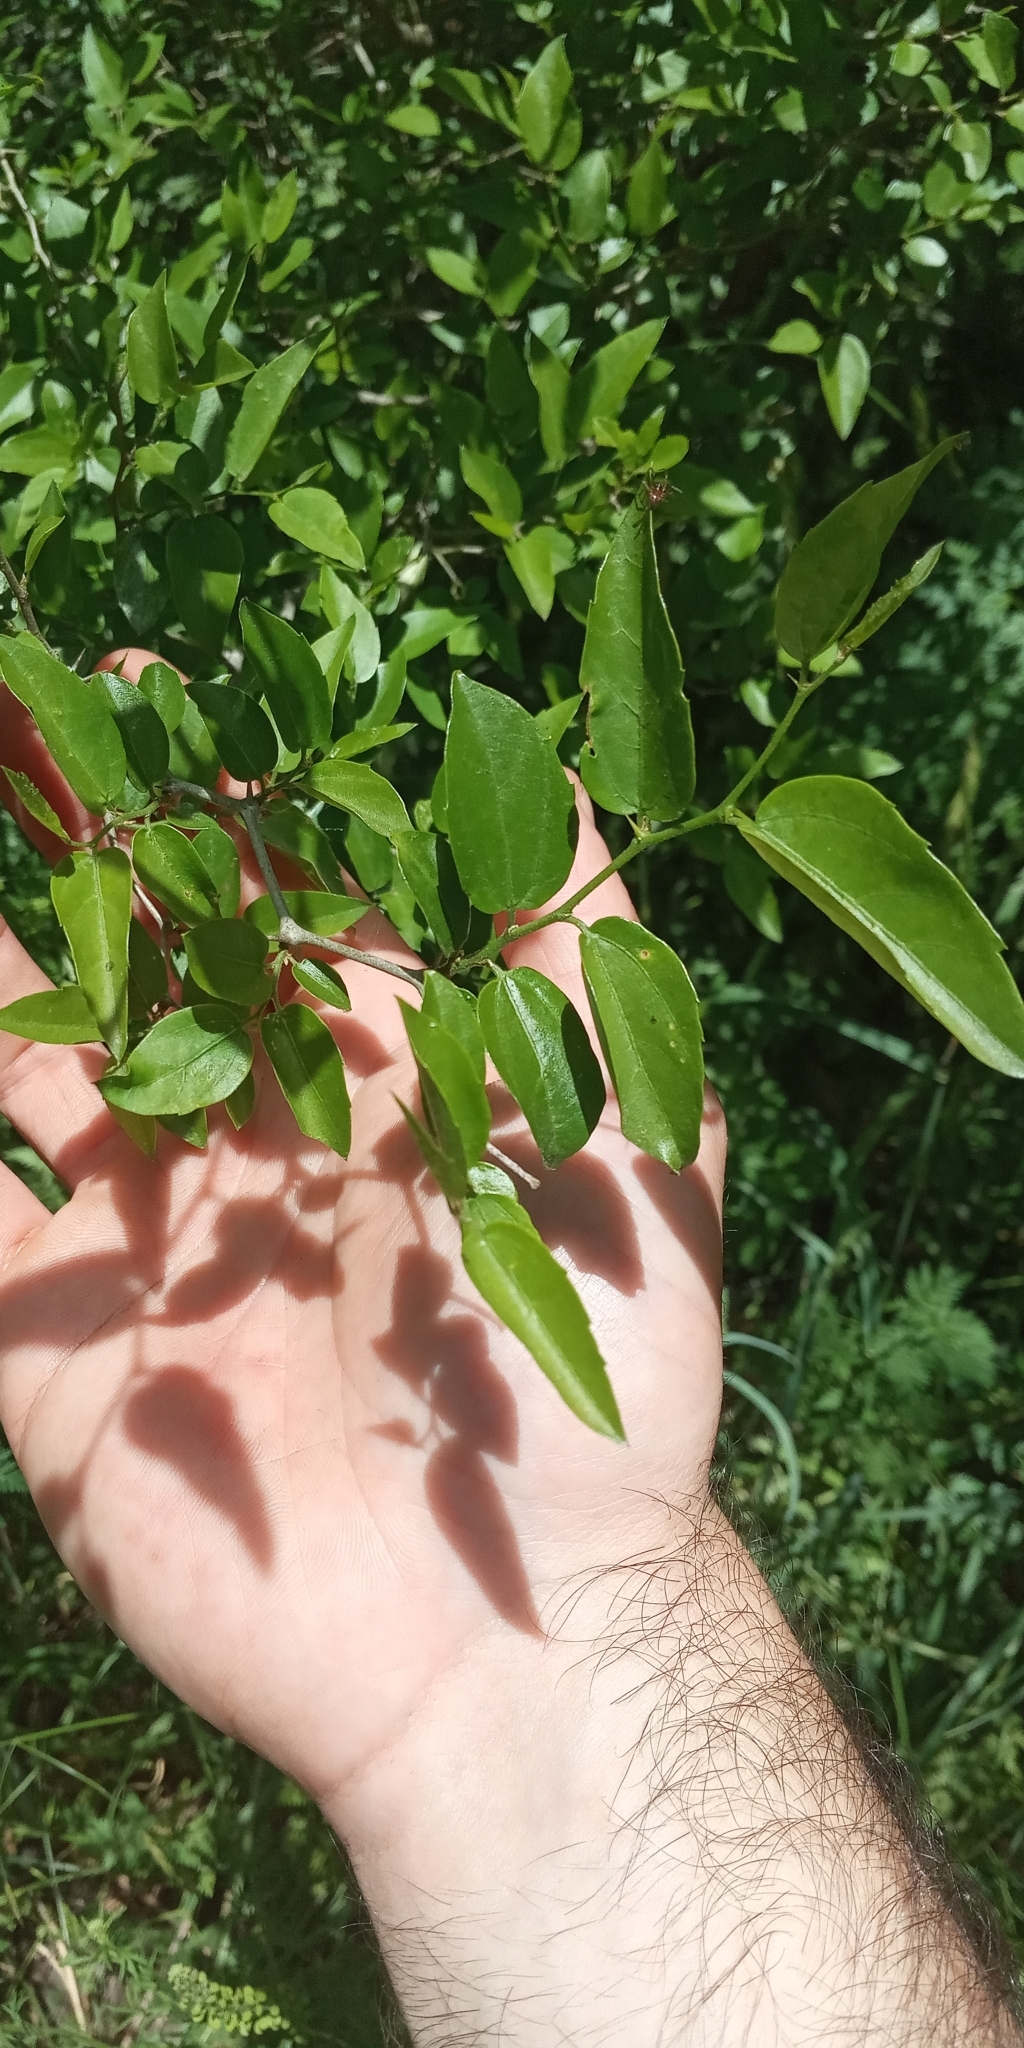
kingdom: Plantae
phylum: Tracheophyta
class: Magnoliopsida
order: Rosales
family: Cannabaceae
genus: Celtis
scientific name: Celtis tala
